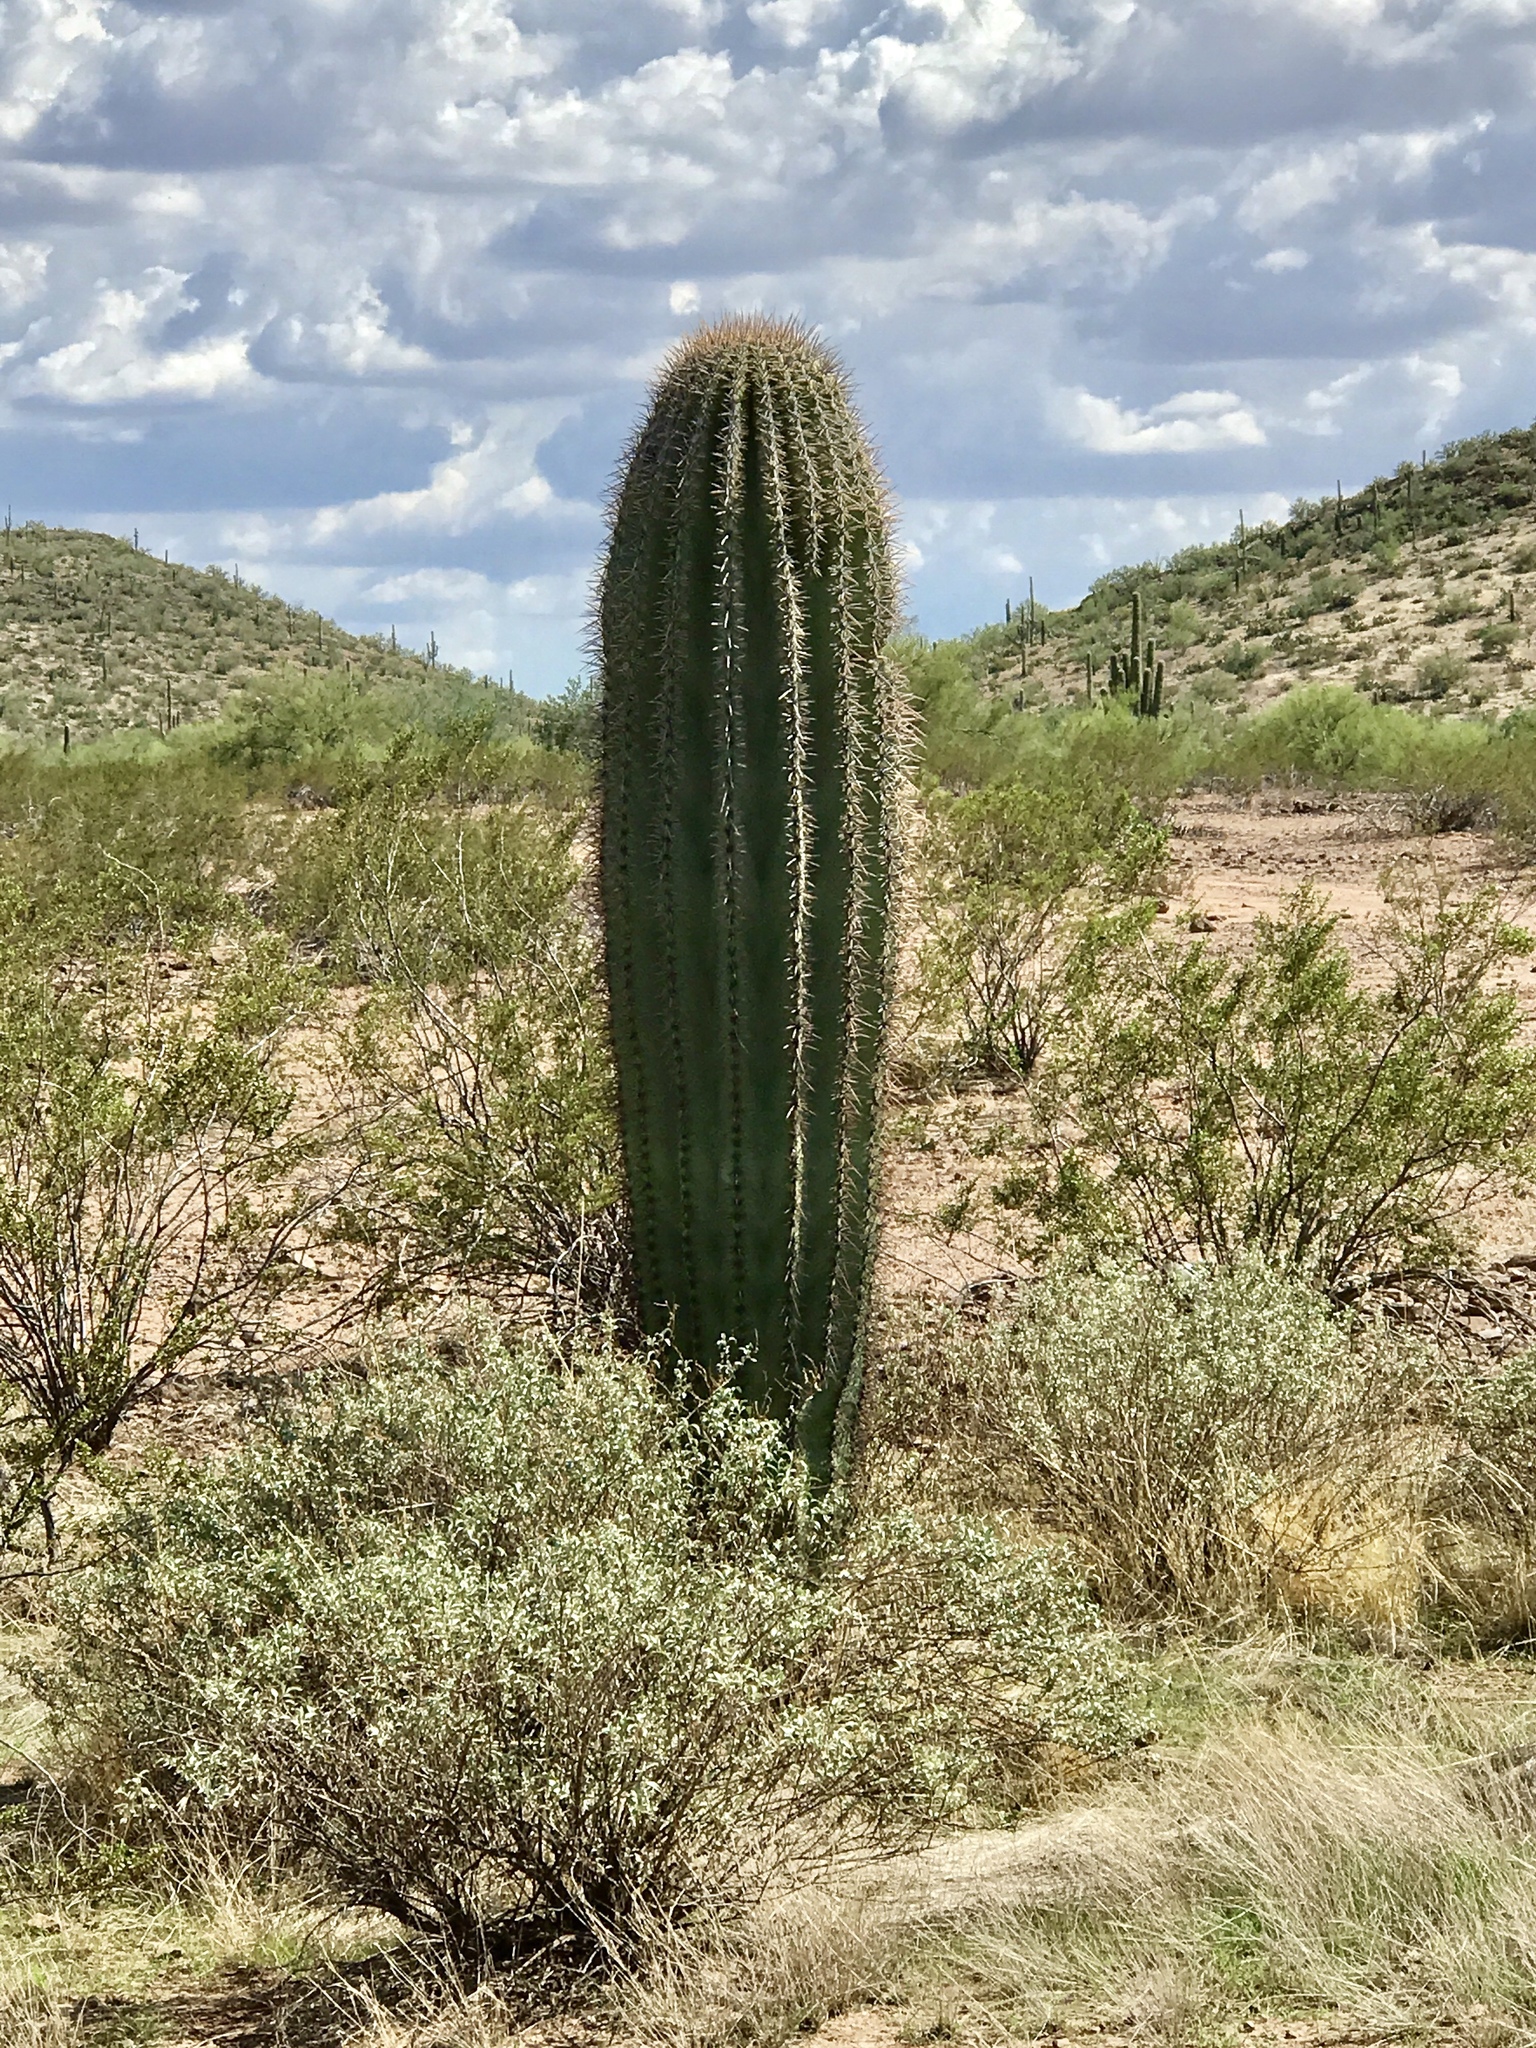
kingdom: Plantae
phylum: Tracheophyta
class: Magnoliopsida
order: Caryophyllales
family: Cactaceae
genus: Carnegiea
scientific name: Carnegiea gigantea
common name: Saguaro
